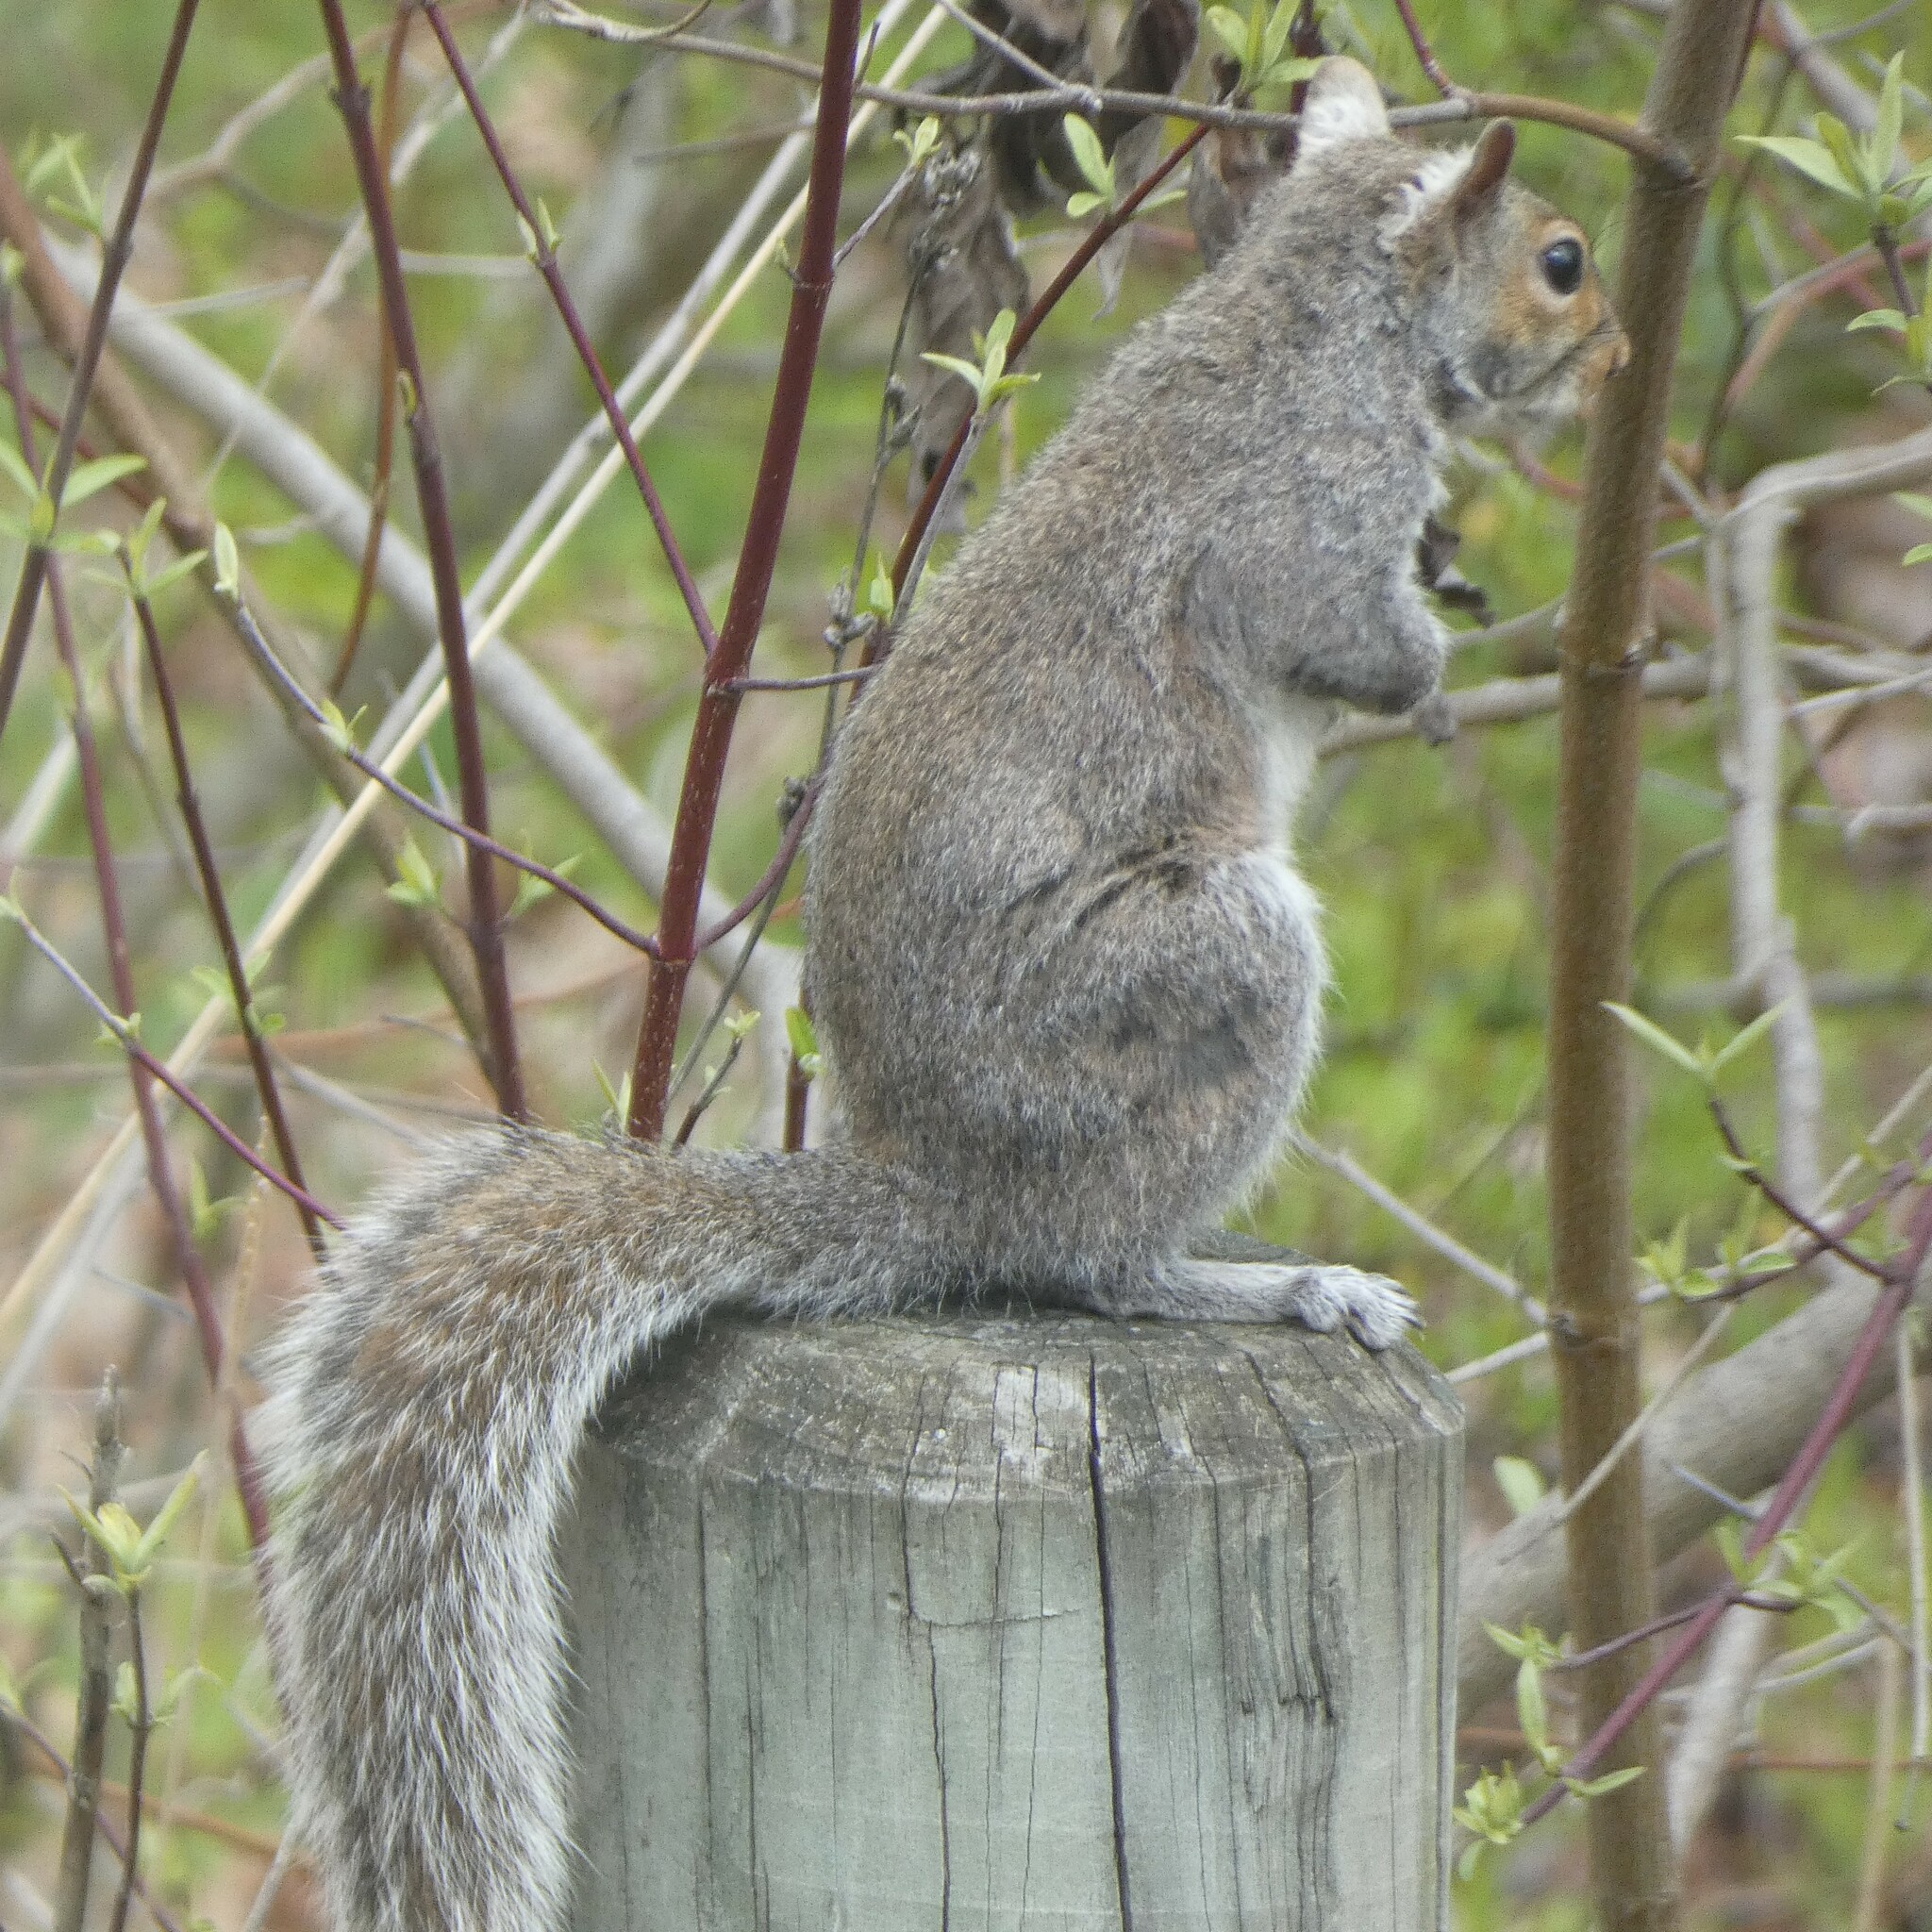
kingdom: Animalia
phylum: Chordata
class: Mammalia
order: Rodentia
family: Sciuridae
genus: Sciurus
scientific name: Sciurus carolinensis
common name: Eastern gray squirrel
